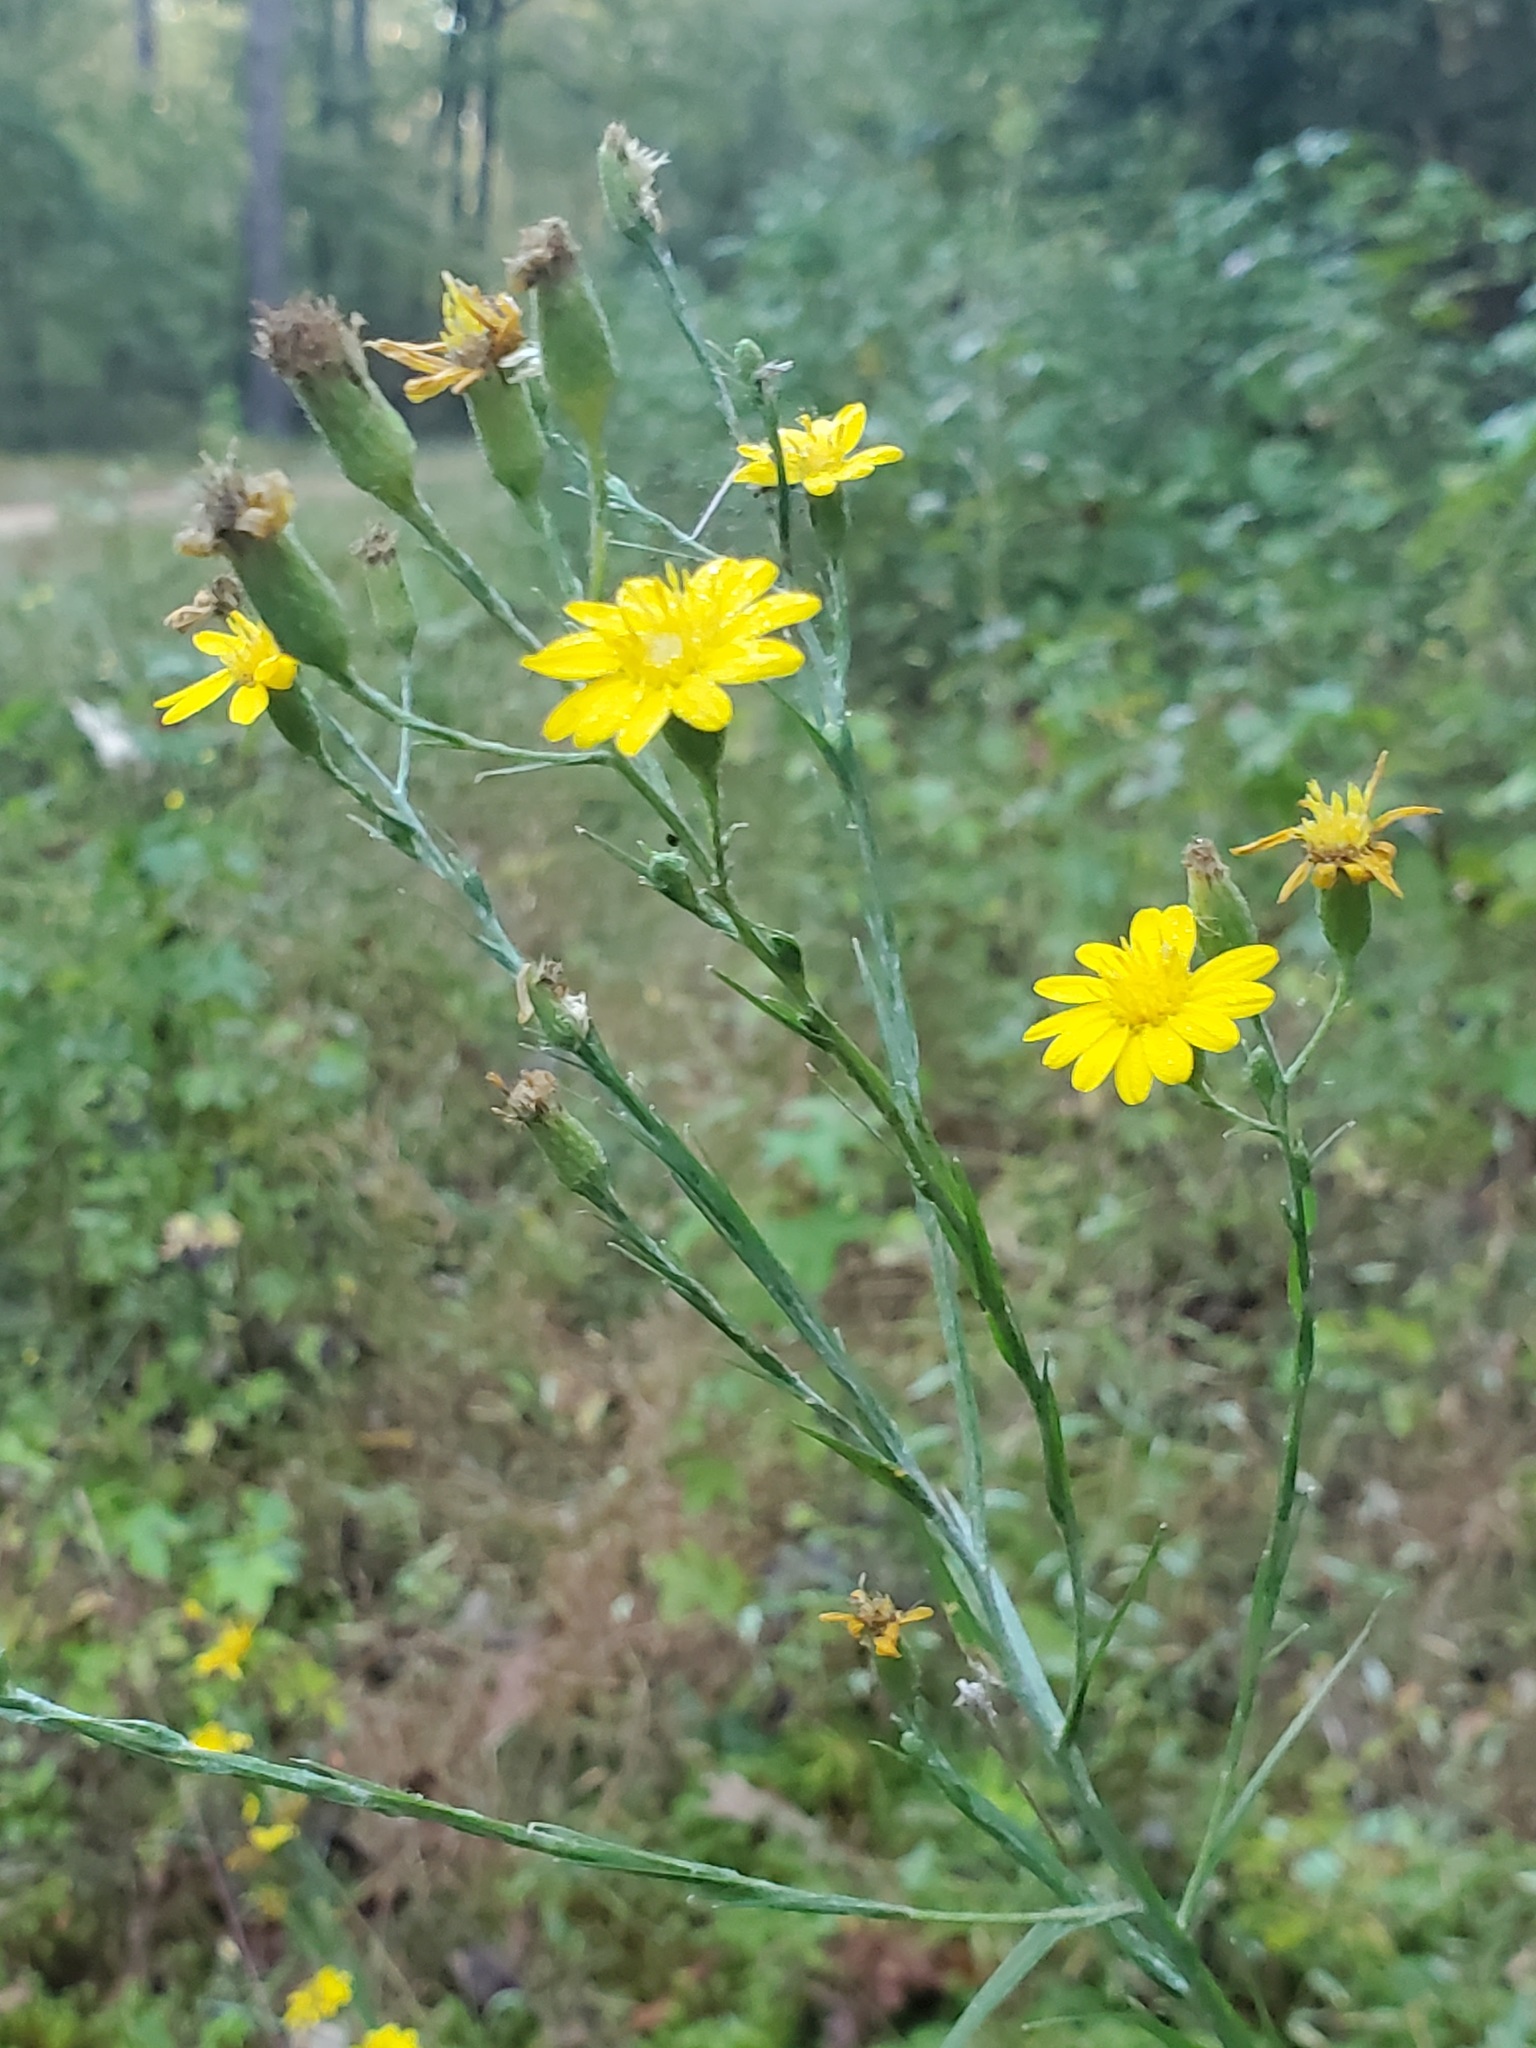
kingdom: Plantae
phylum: Tracheophyta
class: Magnoliopsida
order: Asterales
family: Asteraceae
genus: Pityopsis
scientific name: Pityopsis graminifolia
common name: Grass-leaf golden-aster
